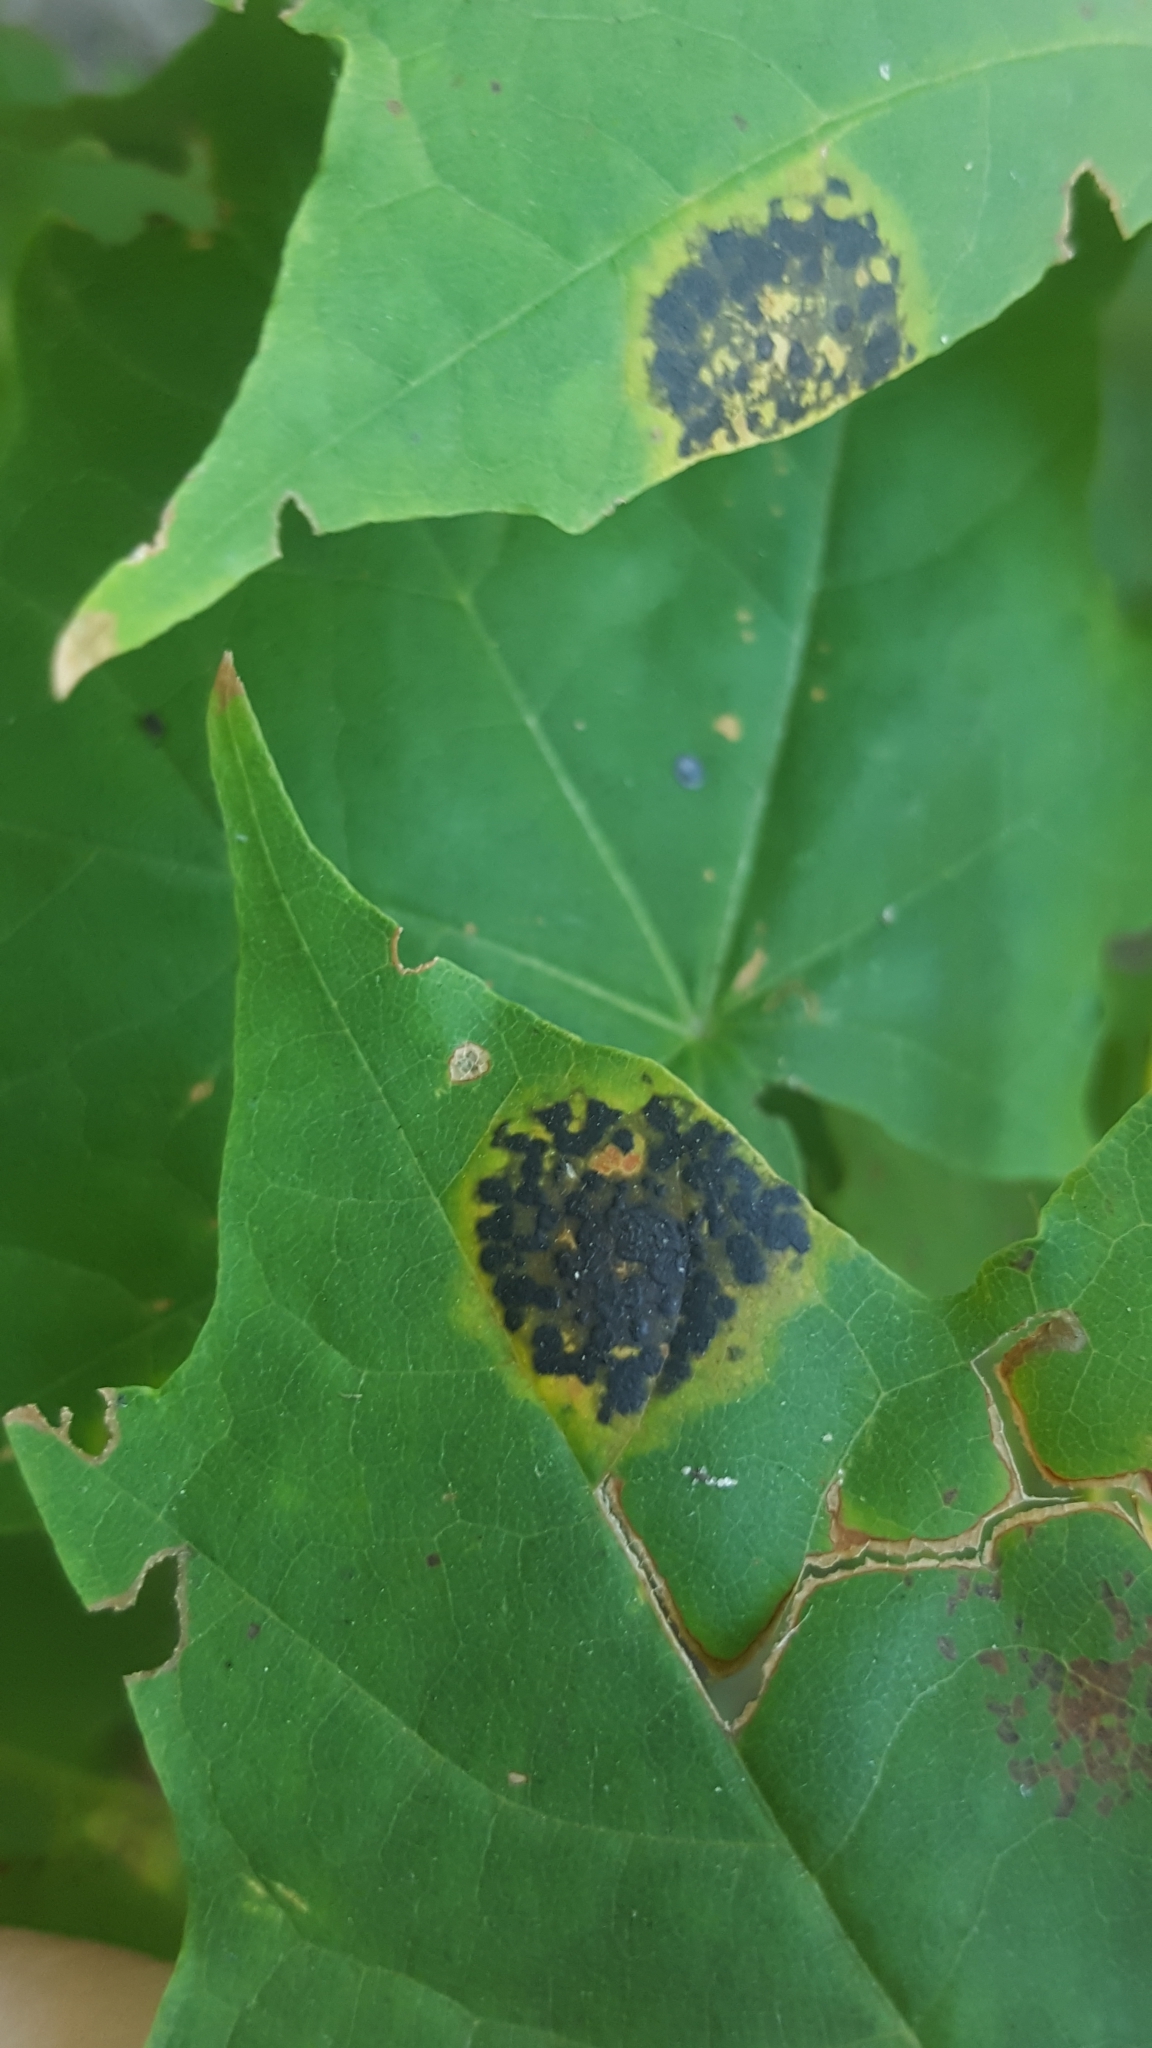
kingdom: Fungi
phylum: Ascomycota
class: Leotiomycetes
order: Rhytismatales
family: Rhytismataceae
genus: Rhytisma
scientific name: Rhytisma acerinum
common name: European tar spot
